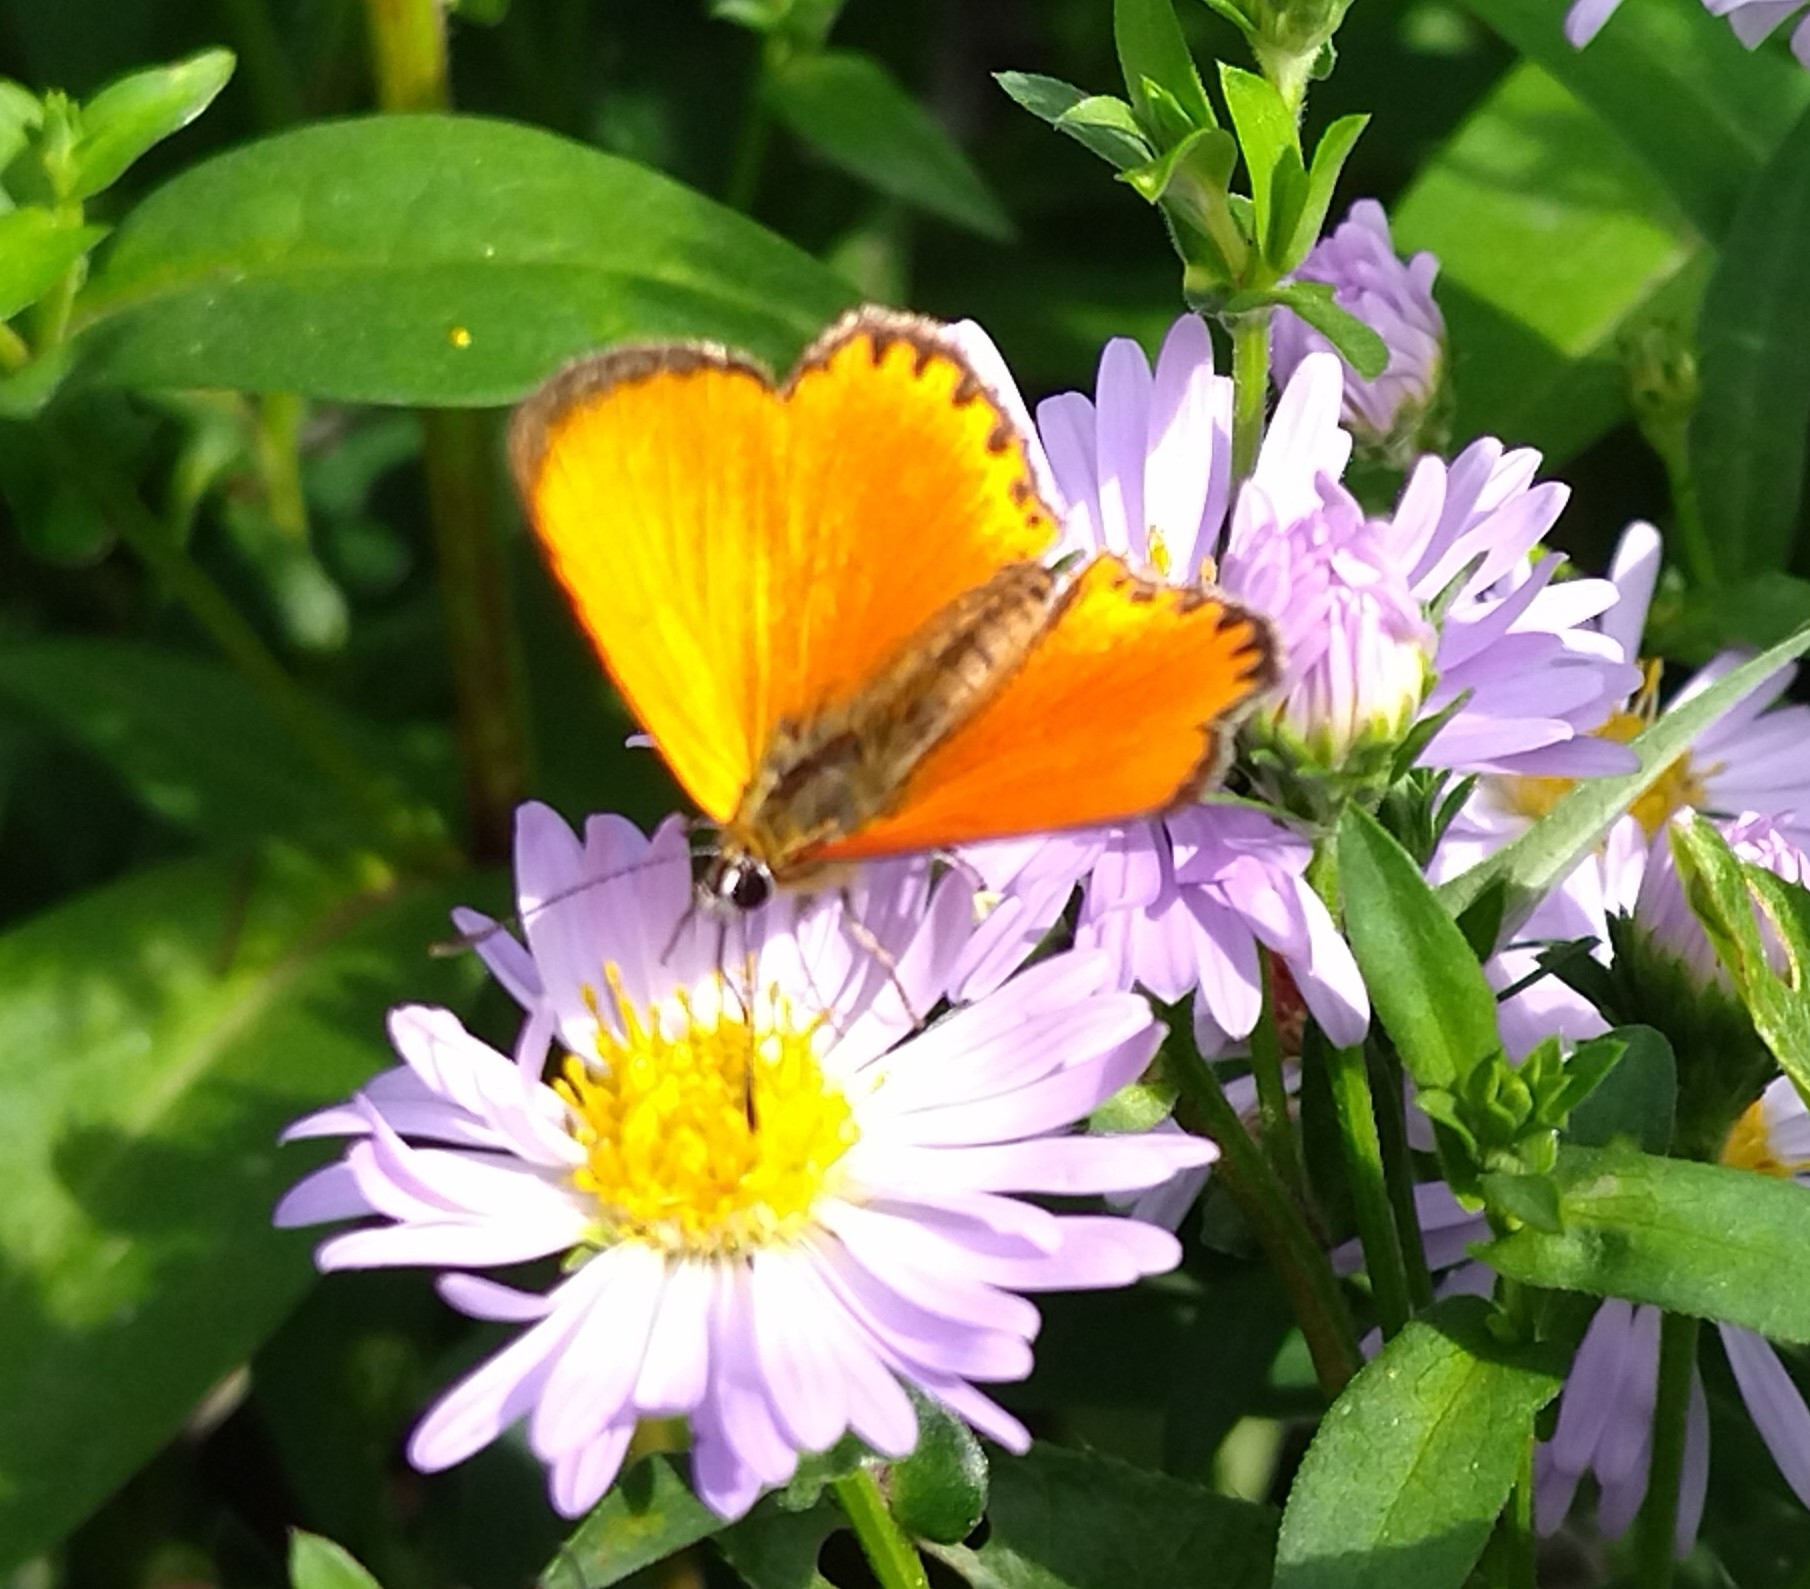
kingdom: Animalia
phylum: Arthropoda
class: Insecta
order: Lepidoptera
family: Lycaenidae
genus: Lycaena
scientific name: Lycaena virgaureae
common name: Scarce copper
